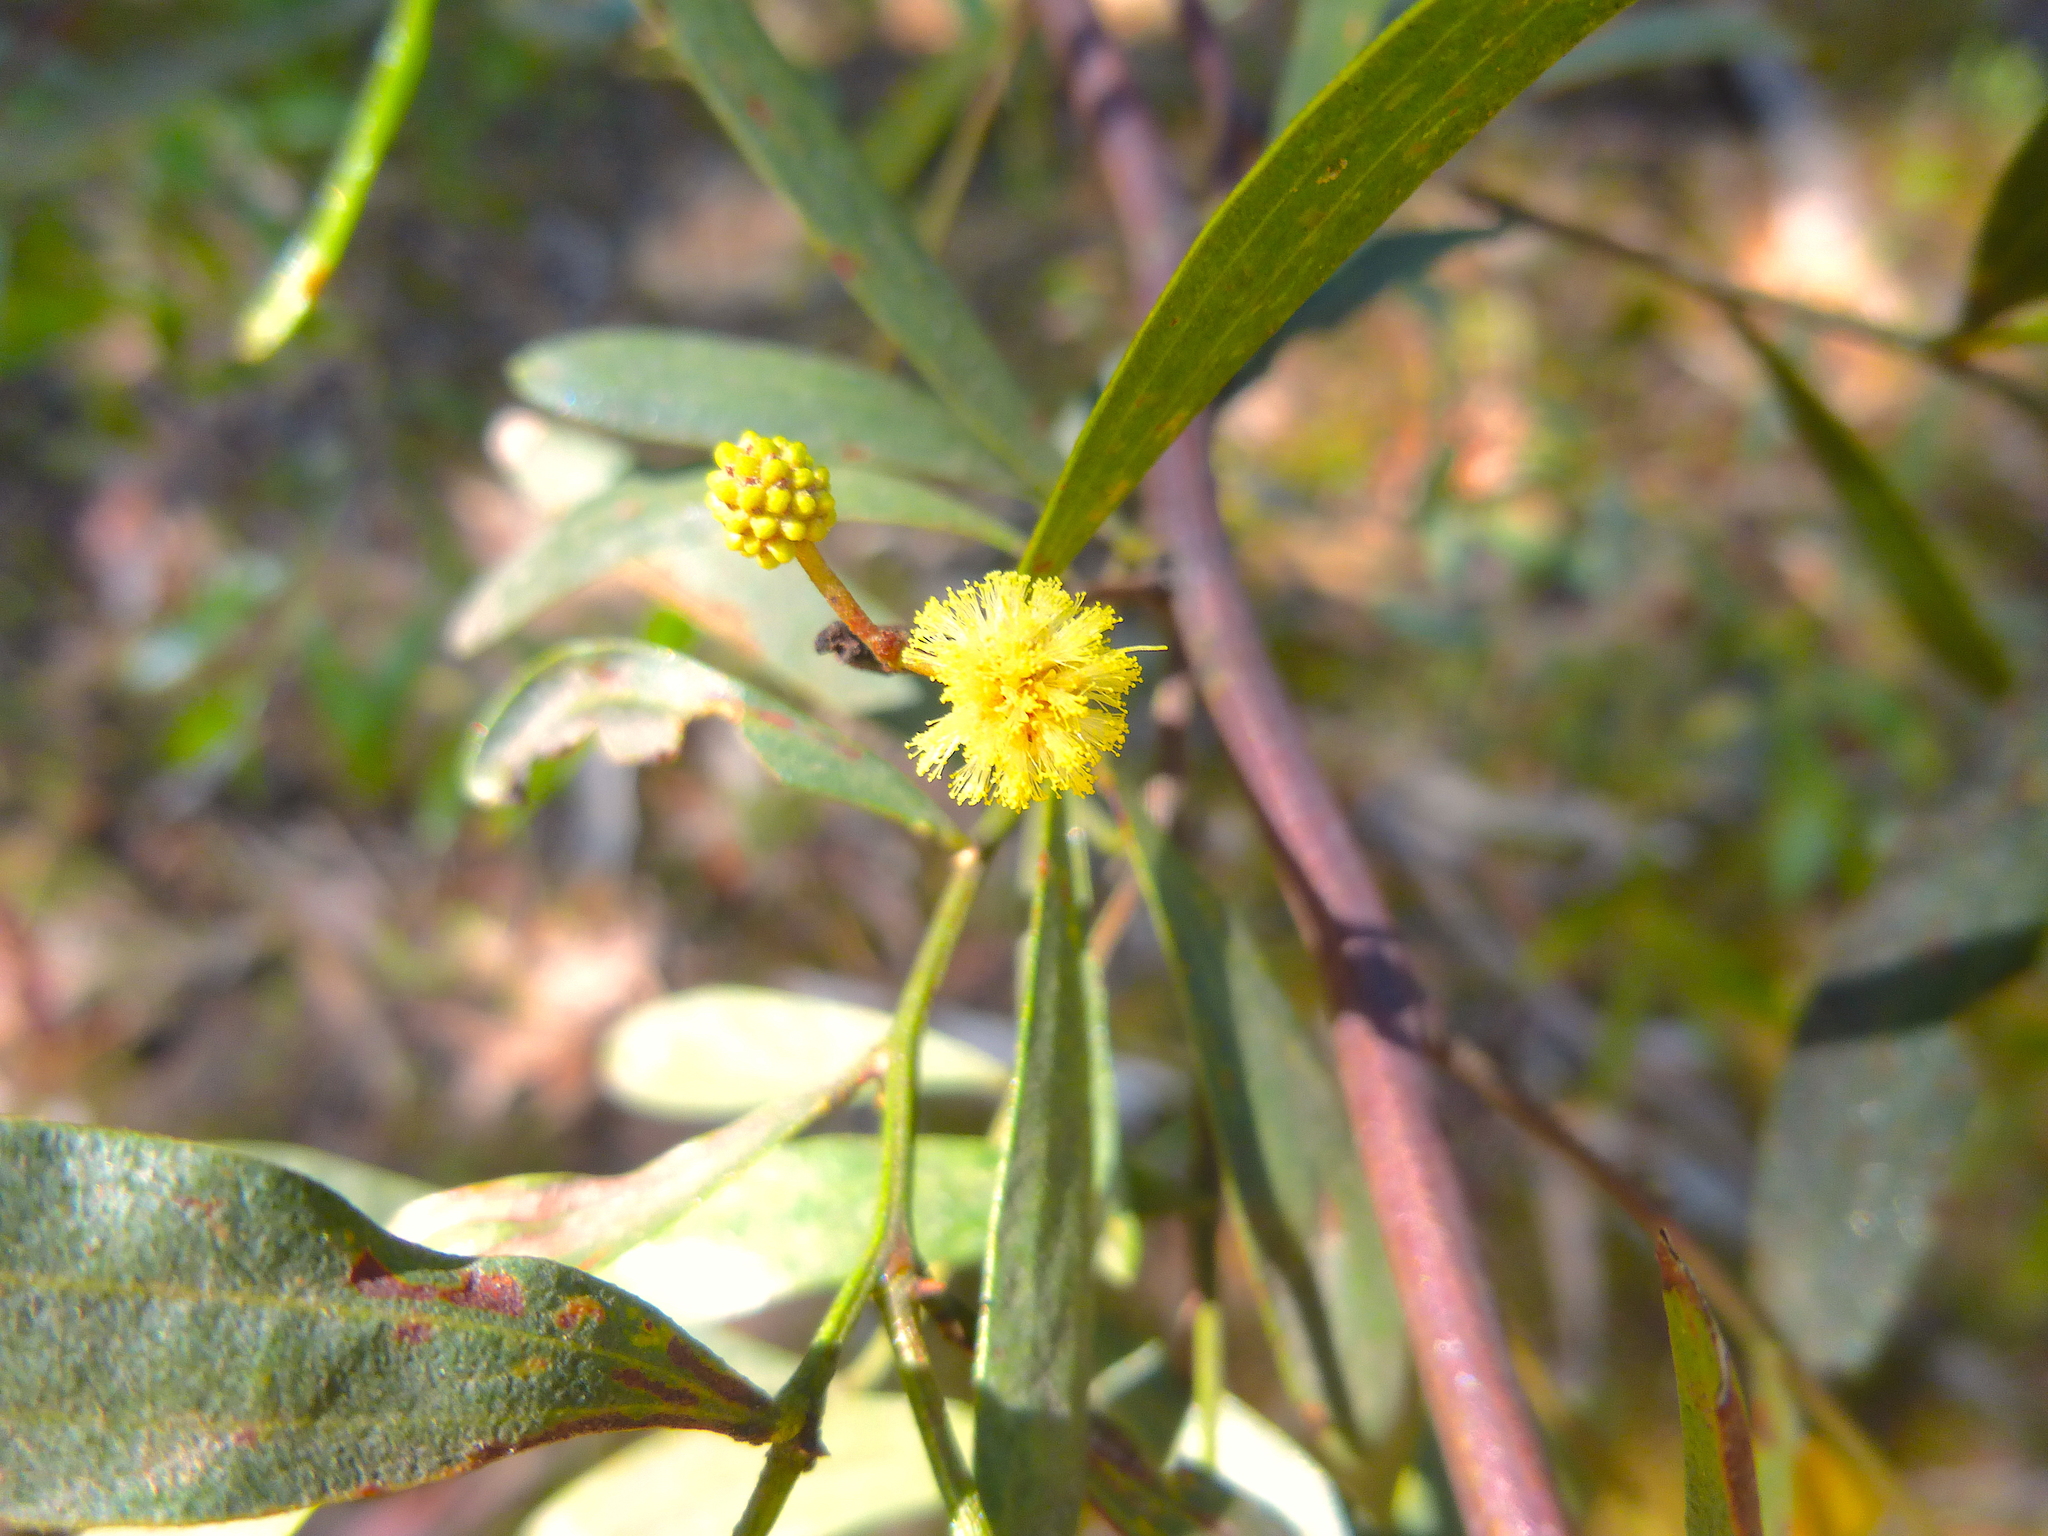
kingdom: Plantae
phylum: Tracheophyta
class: Magnoliopsida
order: Fabales
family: Fabaceae
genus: Acacia
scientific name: Acacia verniciflua
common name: Varnish wattle
